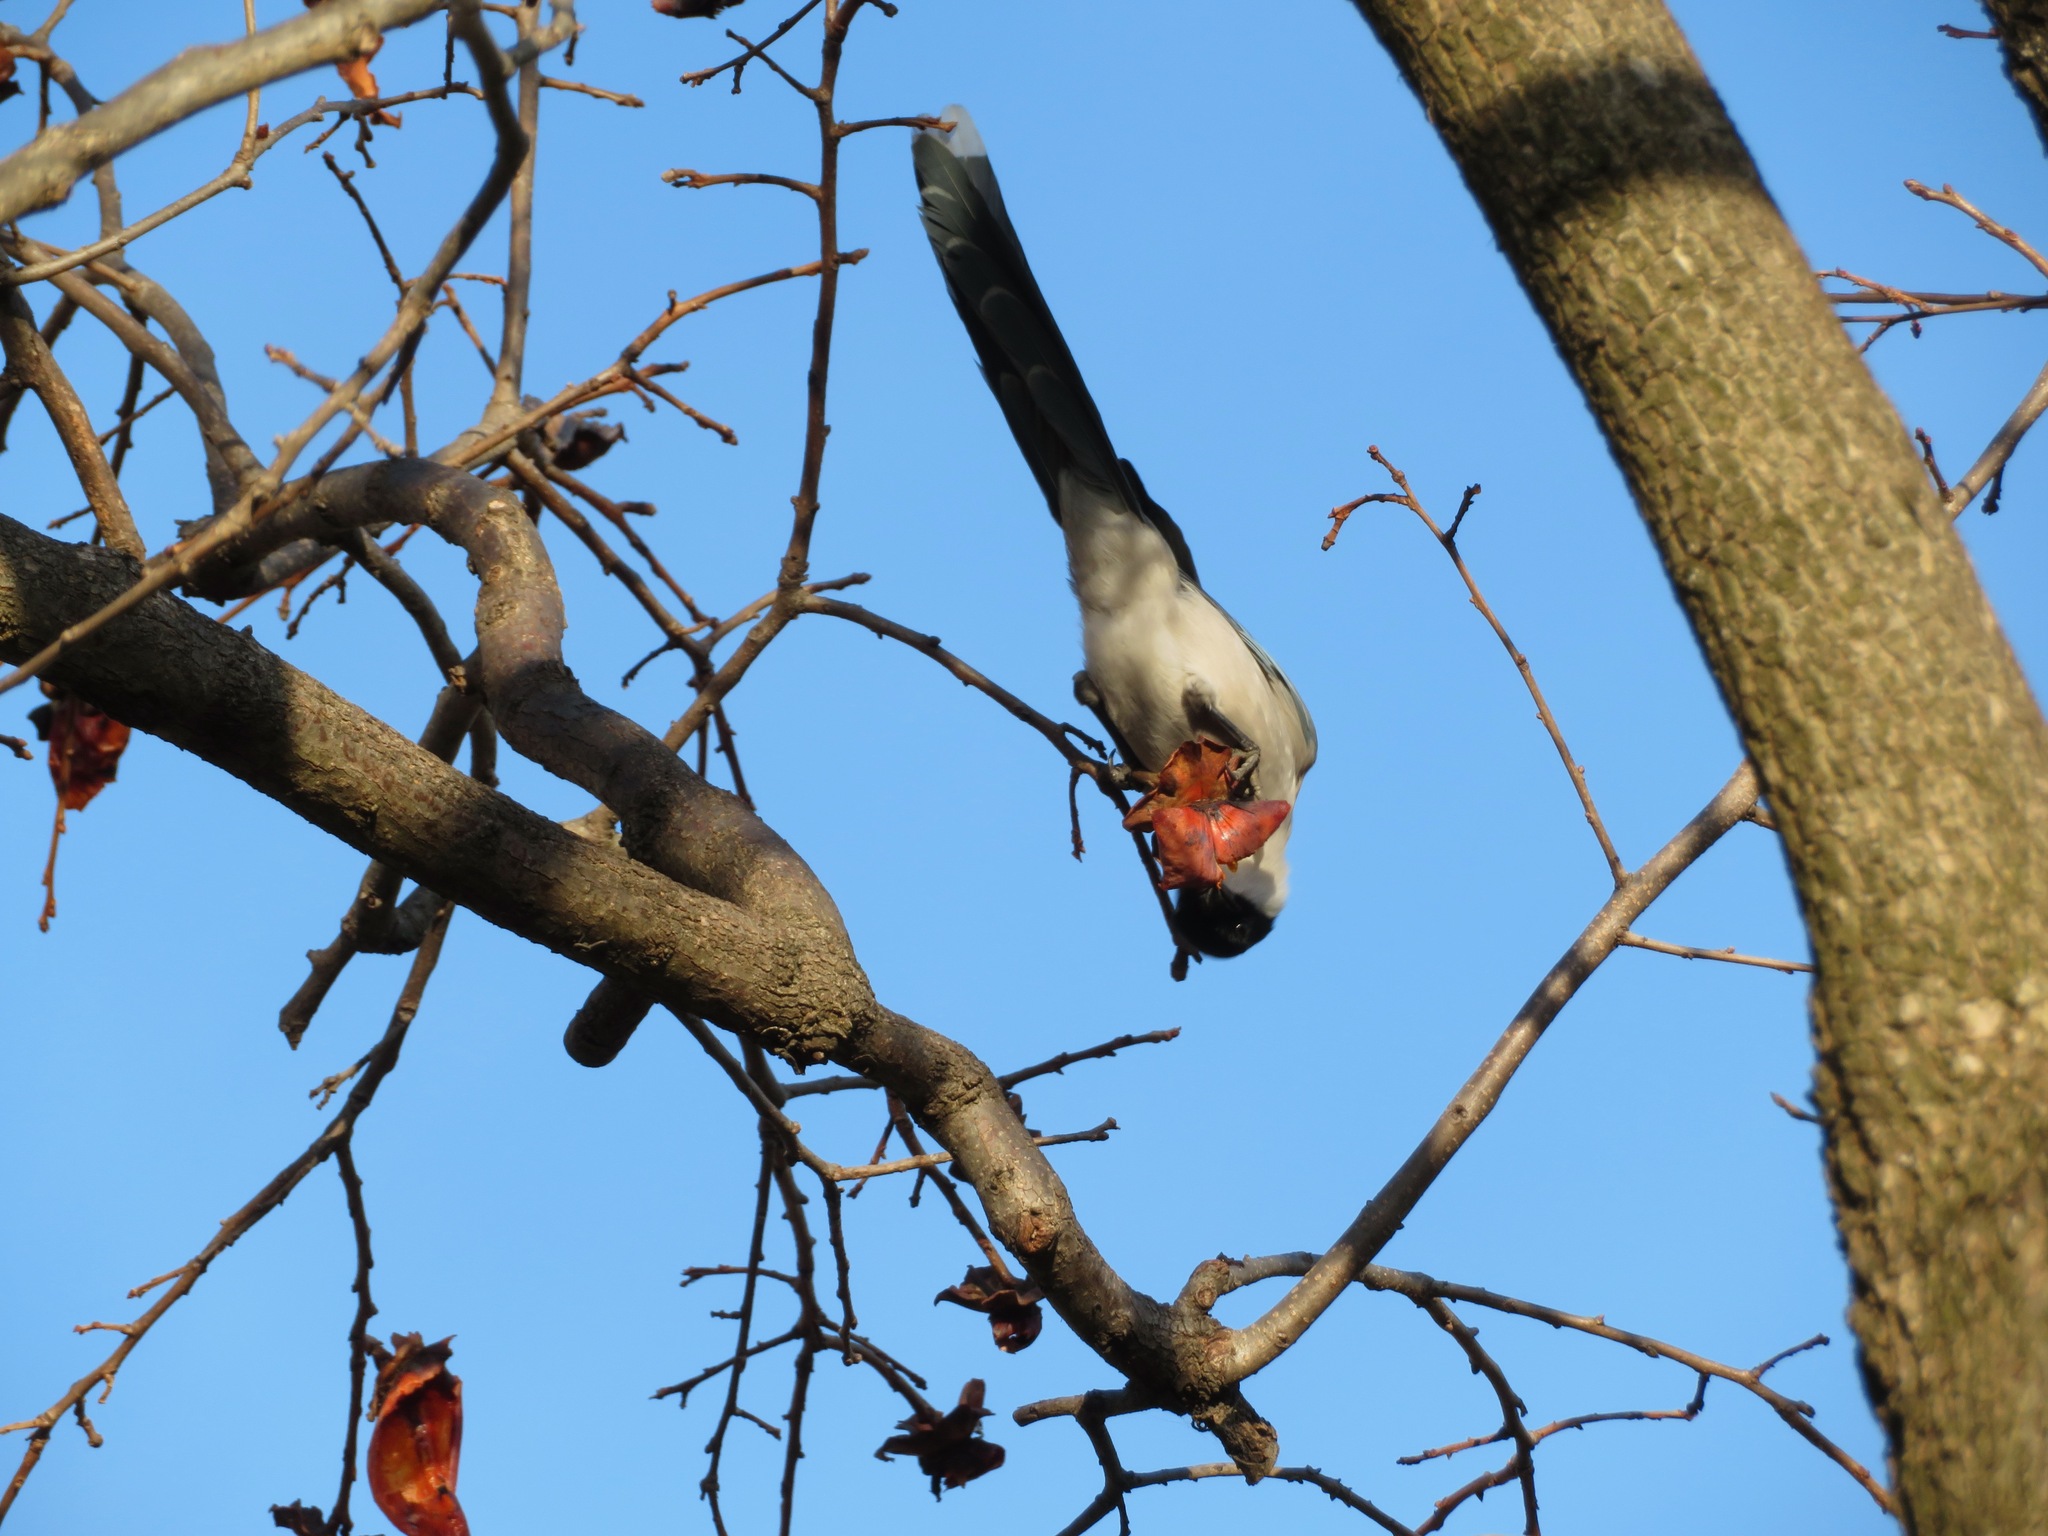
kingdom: Animalia
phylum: Chordata
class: Aves
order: Passeriformes
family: Corvidae
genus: Cyanopica
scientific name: Cyanopica cyanus
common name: Azure-winged magpie
